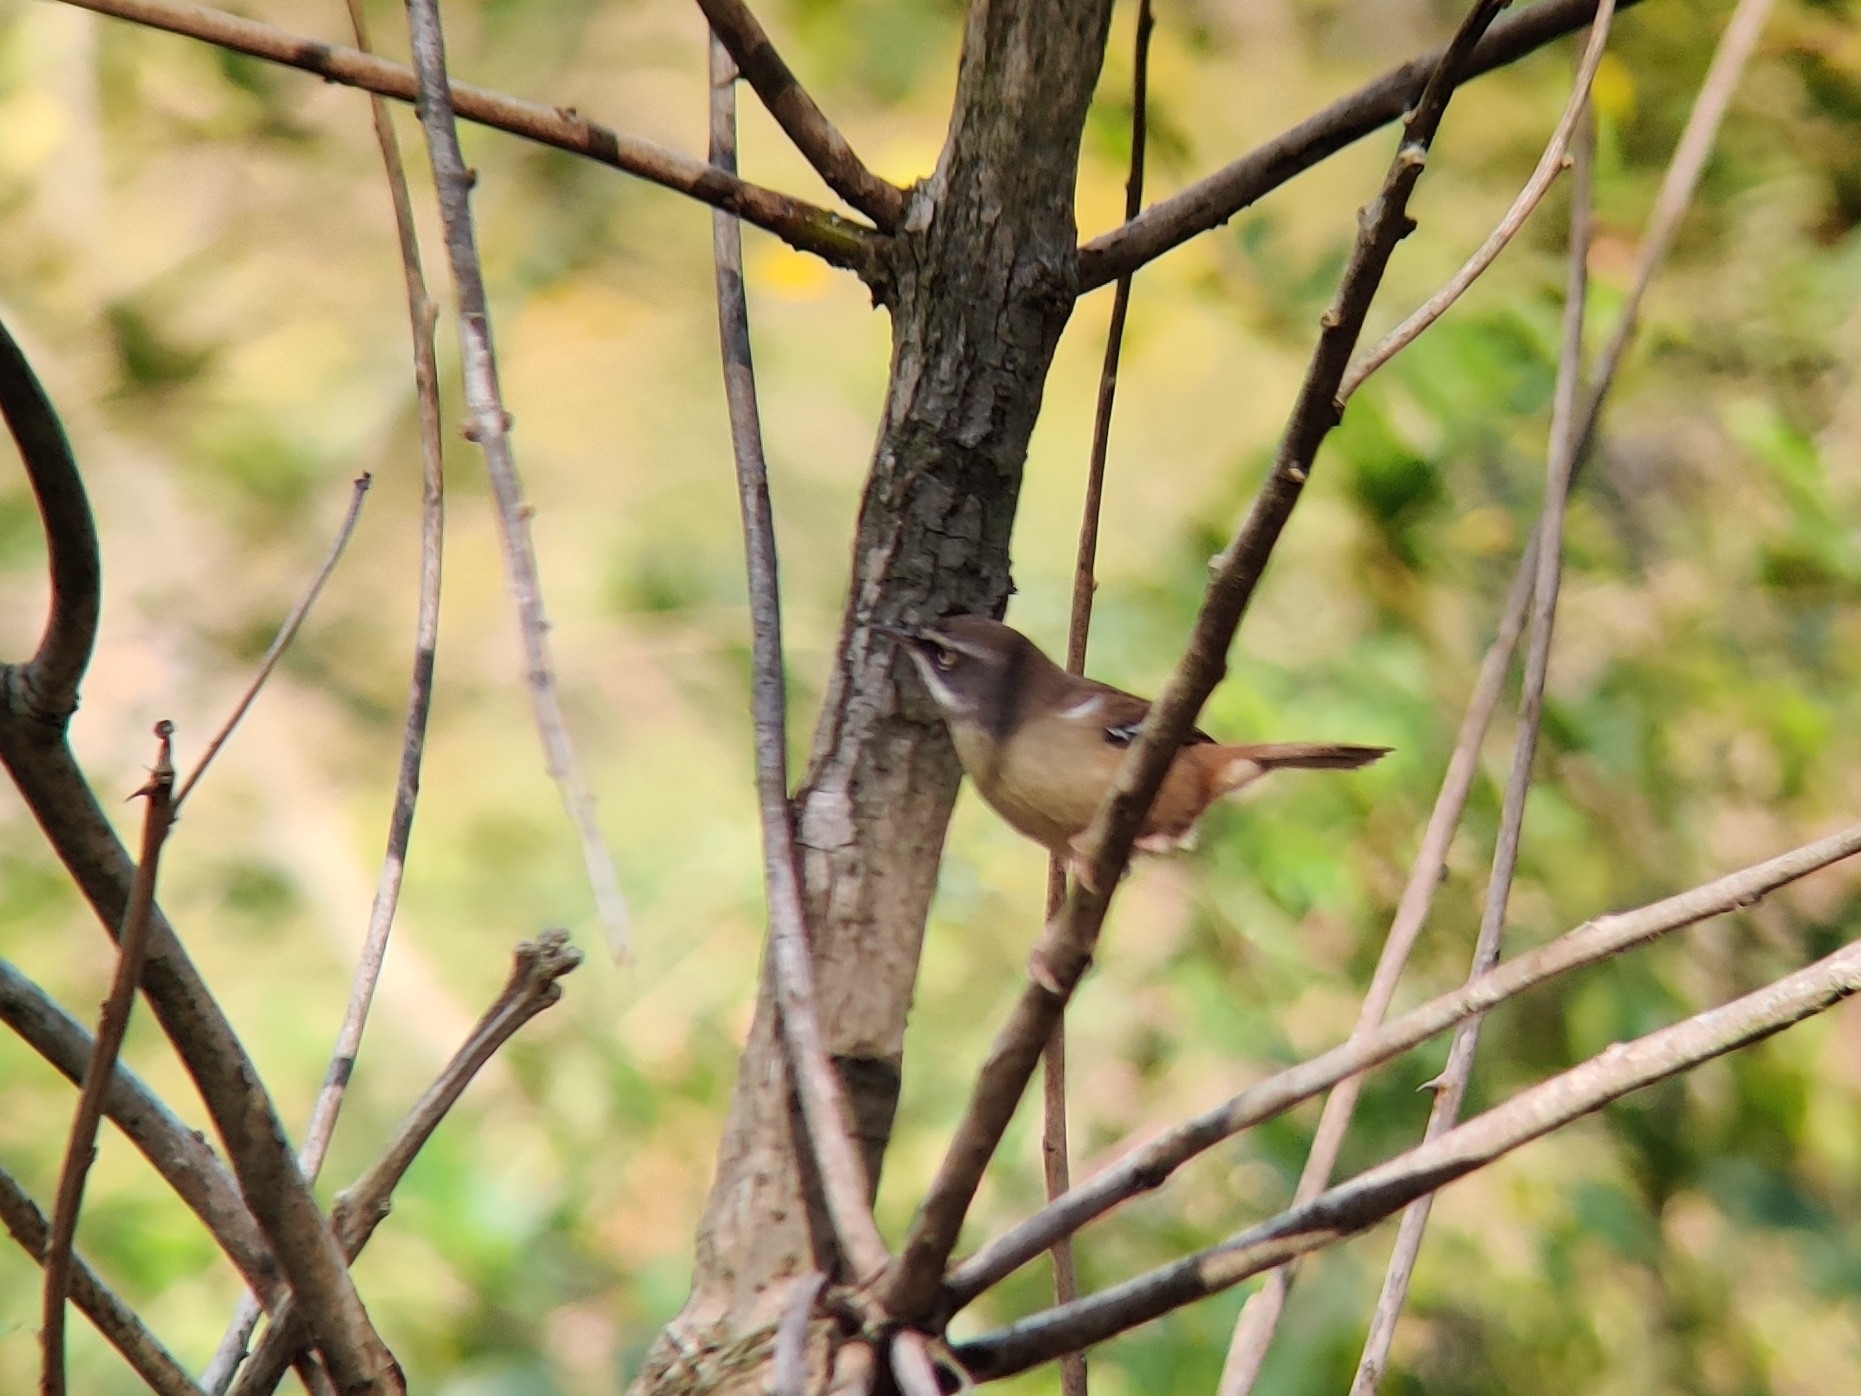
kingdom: Animalia
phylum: Chordata
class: Aves
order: Passeriformes
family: Acanthizidae
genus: Sericornis
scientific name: Sericornis frontalis
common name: White-browed scrubwren
